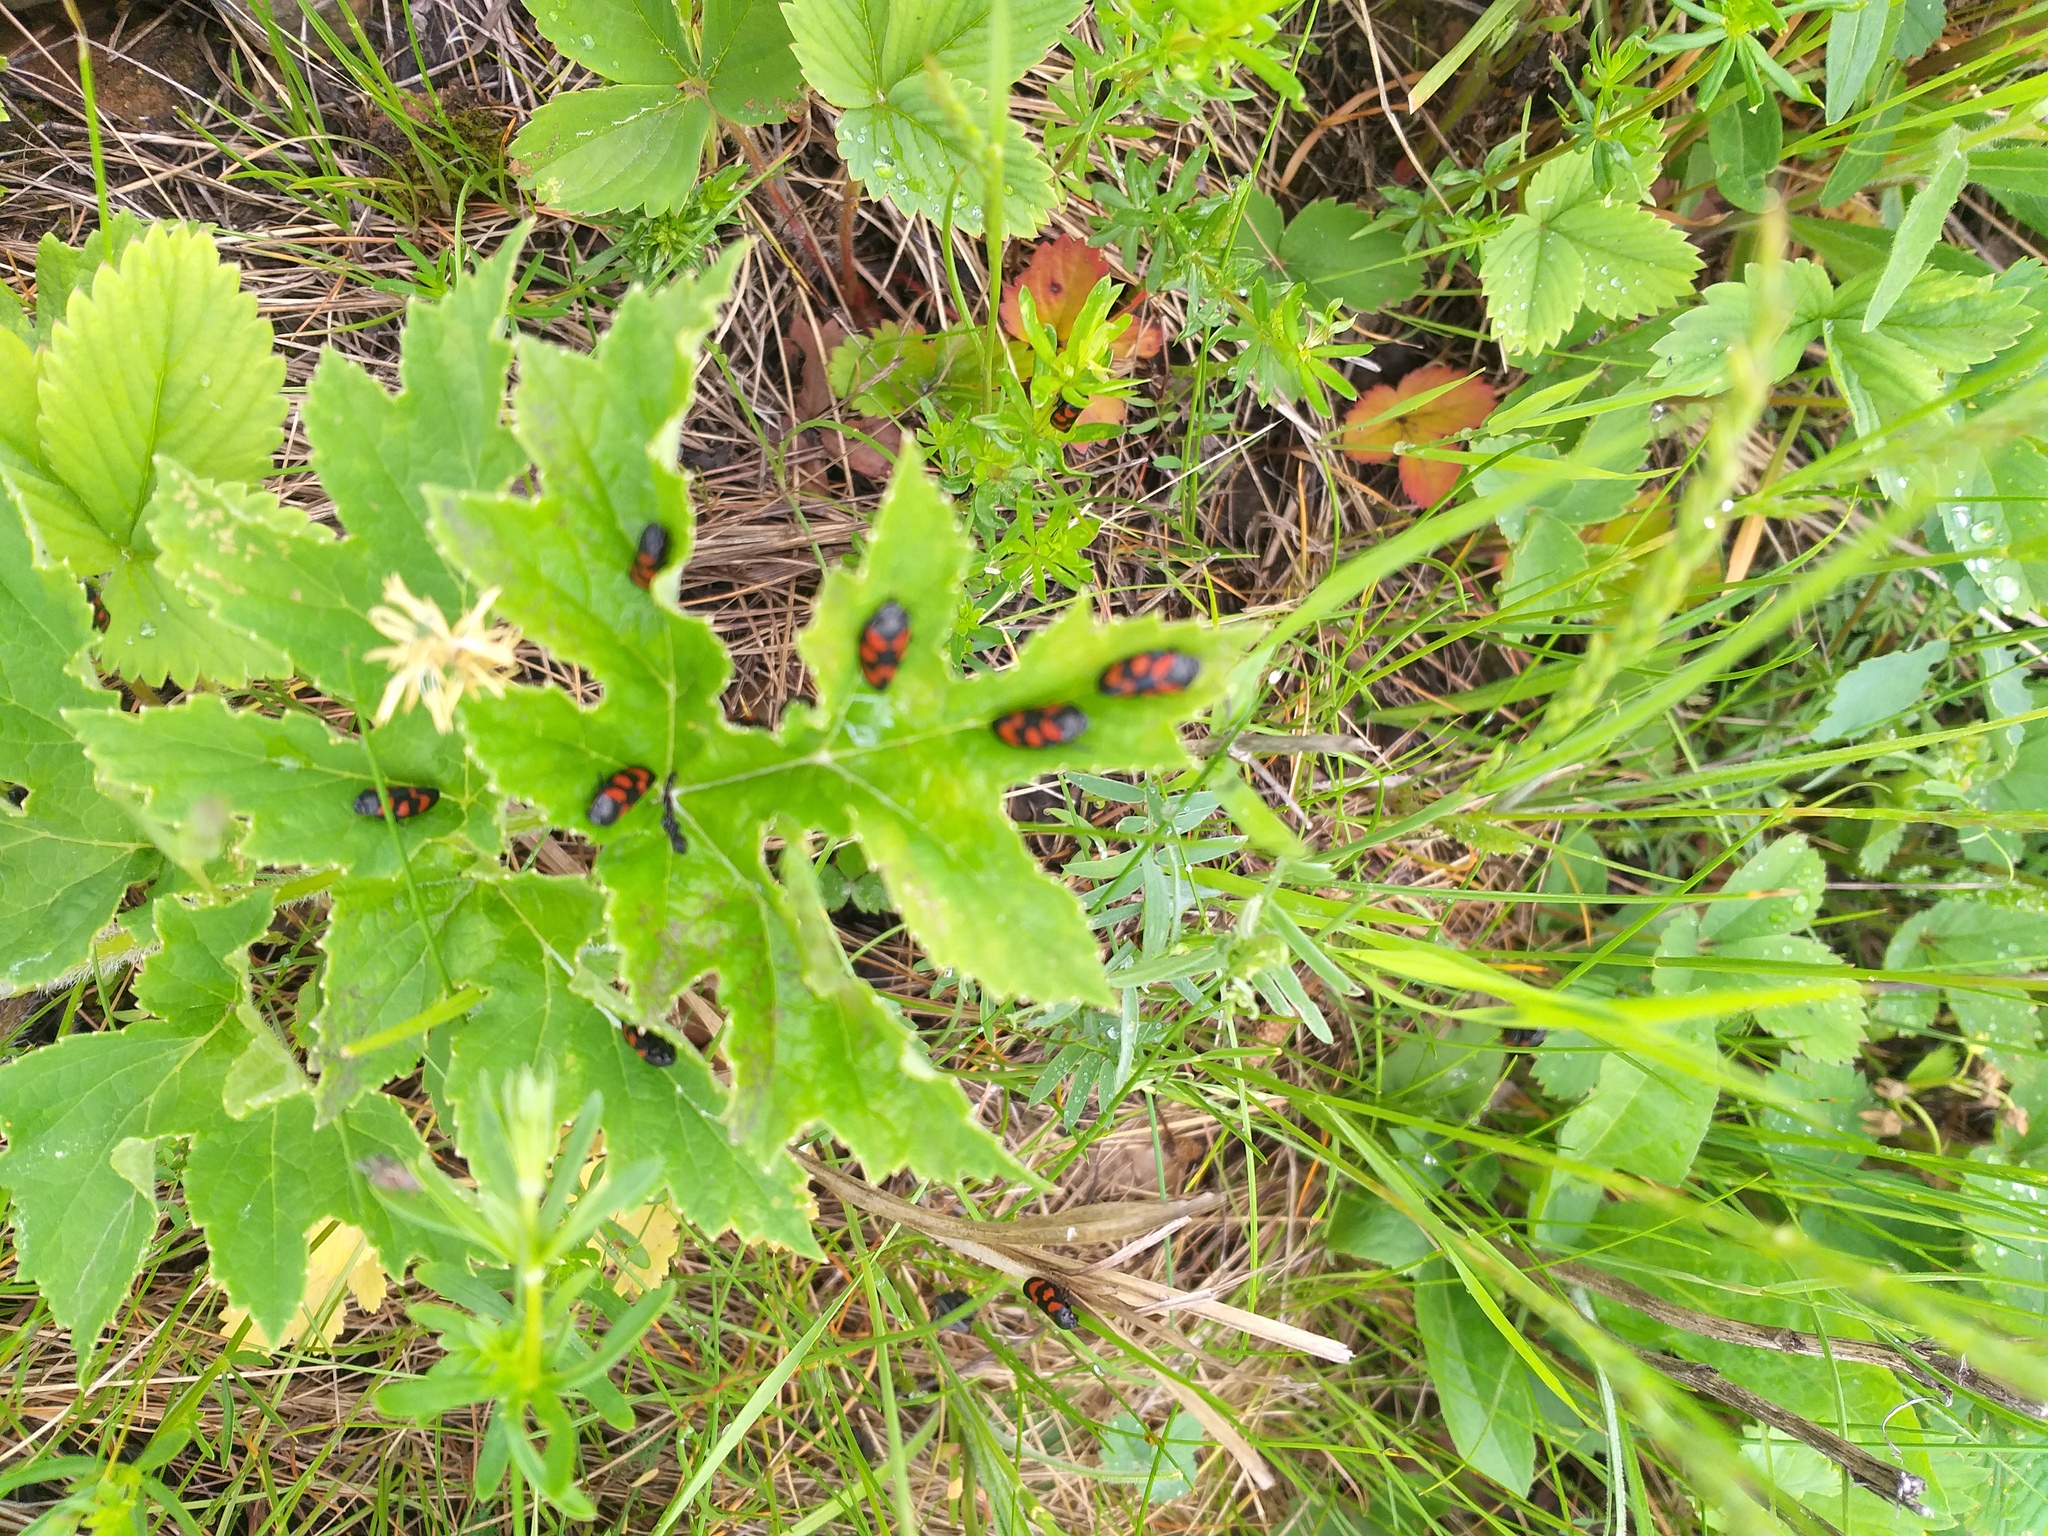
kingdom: Animalia
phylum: Arthropoda
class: Insecta
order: Hemiptera
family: Cercopidae
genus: Cercopis
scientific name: Cercopis vulnerata
